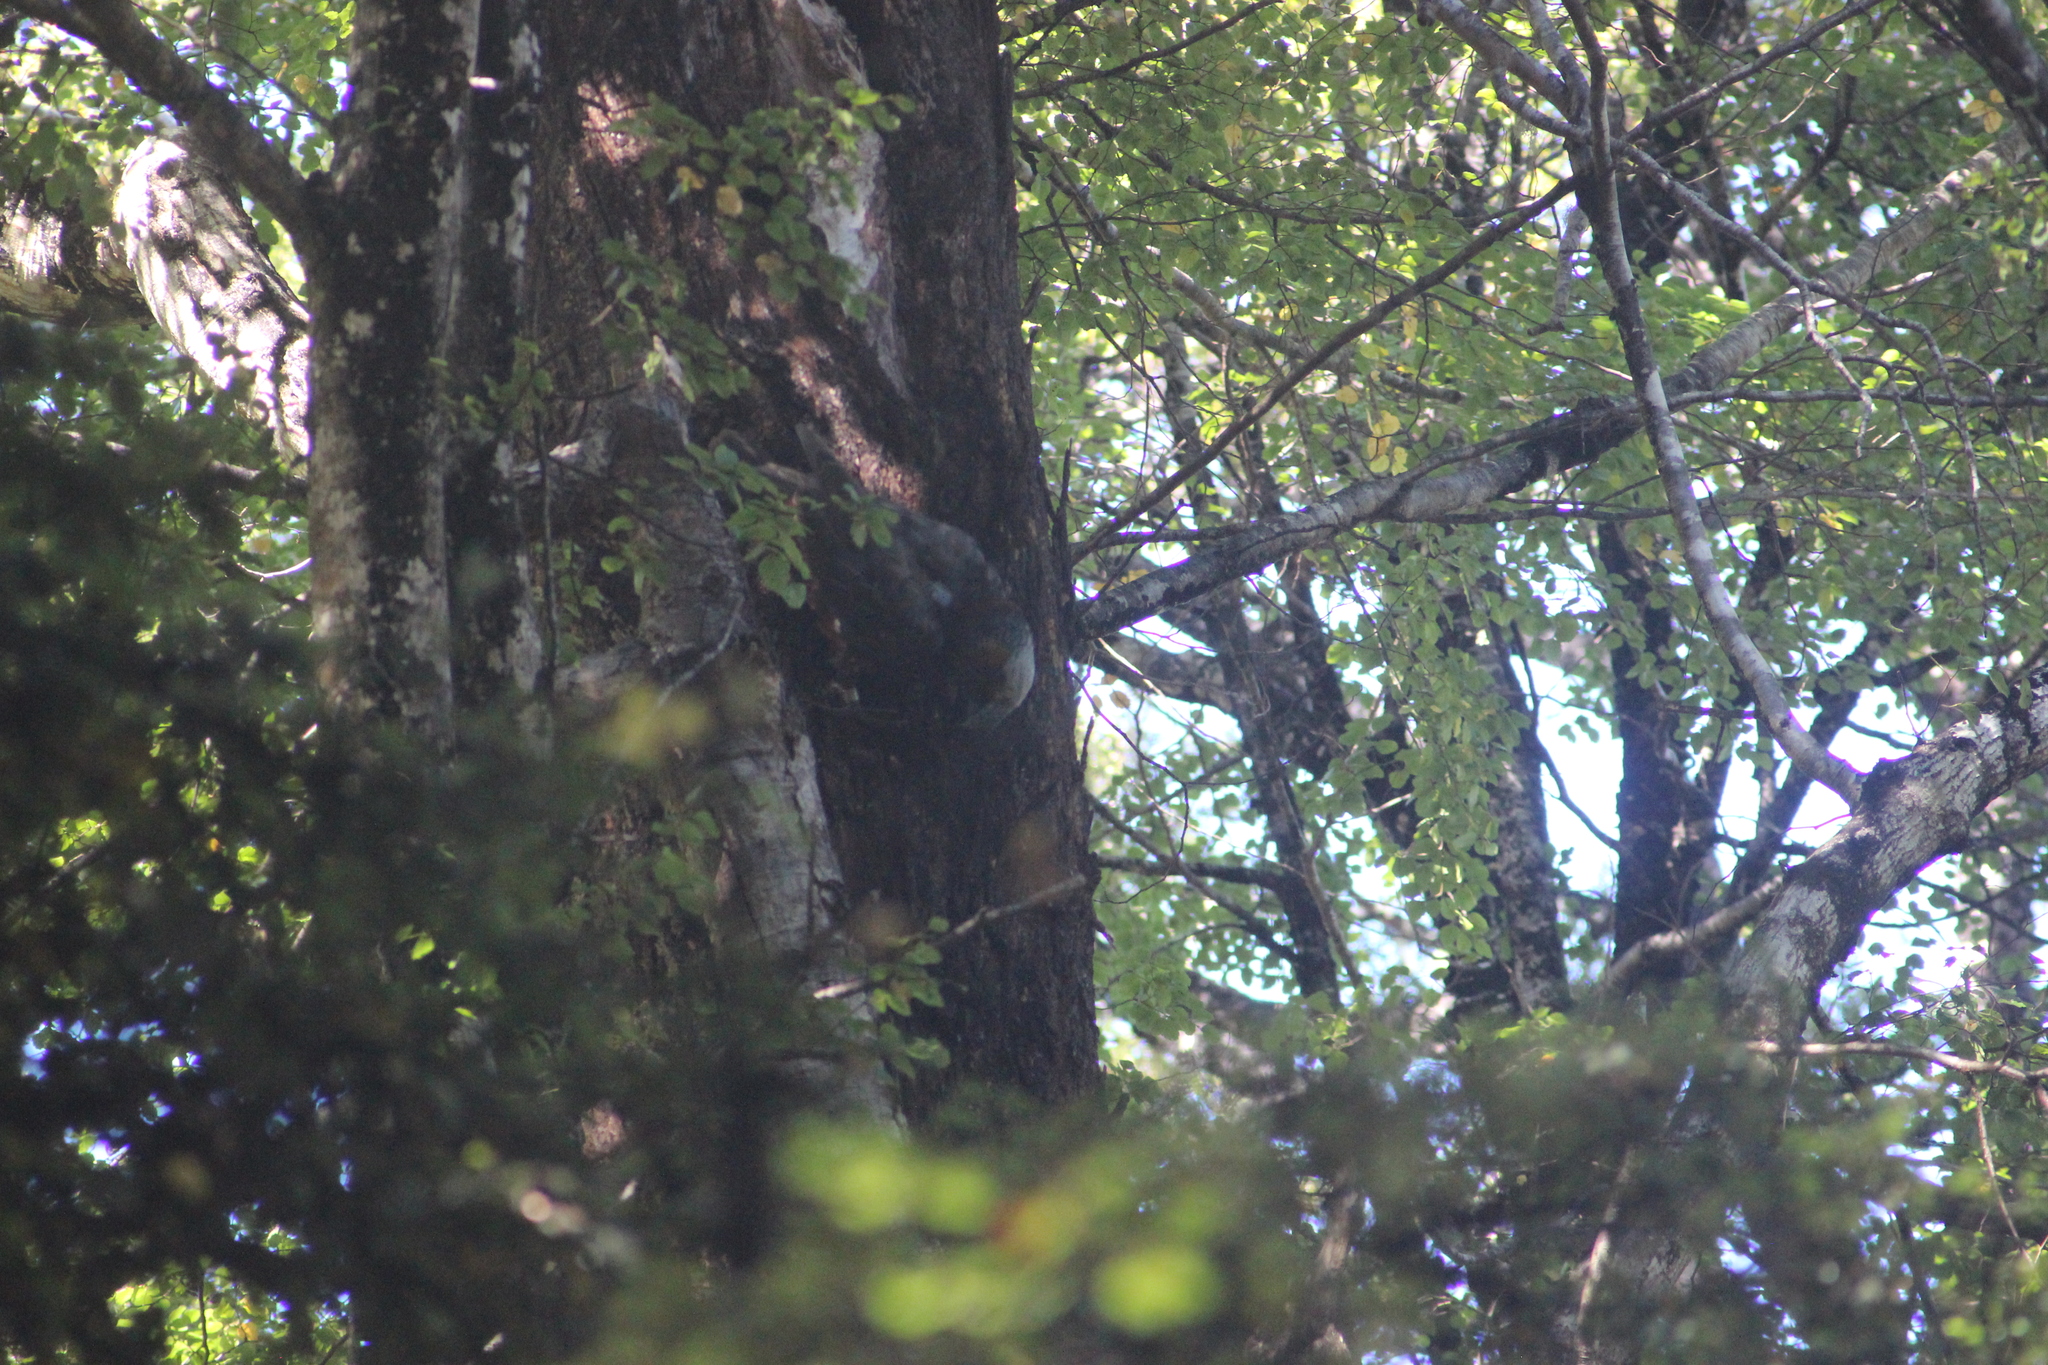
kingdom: Animalia
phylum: Chordata
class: Aves
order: Psittaciformes
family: Psittacidae
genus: Nestor
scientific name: Nestor meridionalis
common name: New zealand kaka
